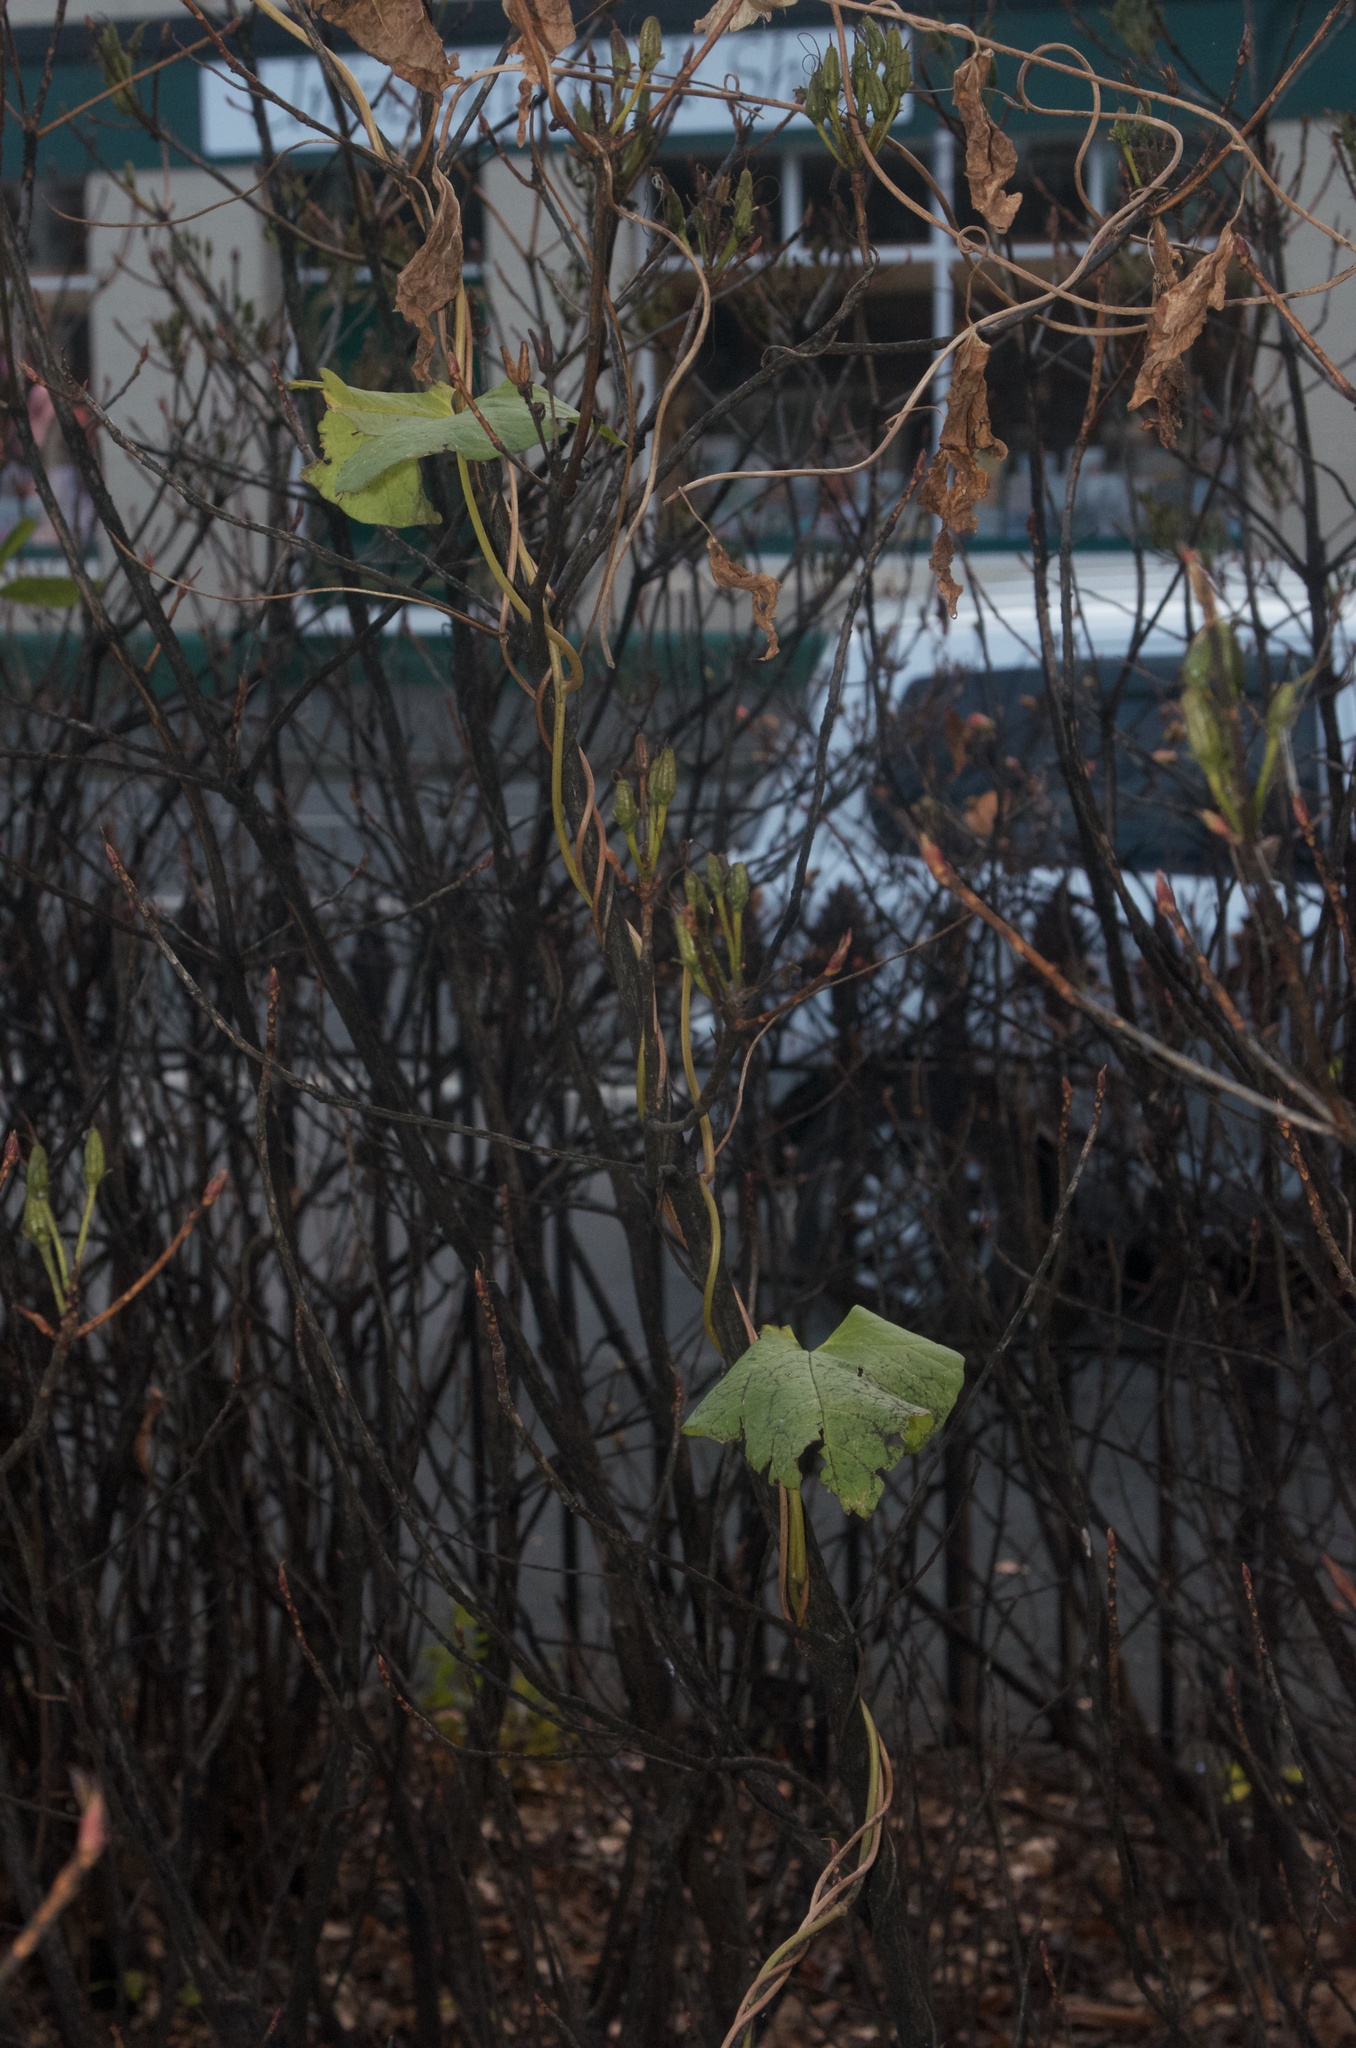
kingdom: Plantae
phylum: Tracheophyta
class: Magnoliopsida
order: Solanales
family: Convolvulaceae
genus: Calystegia
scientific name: Calystegia silvatica
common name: Large bindweed
